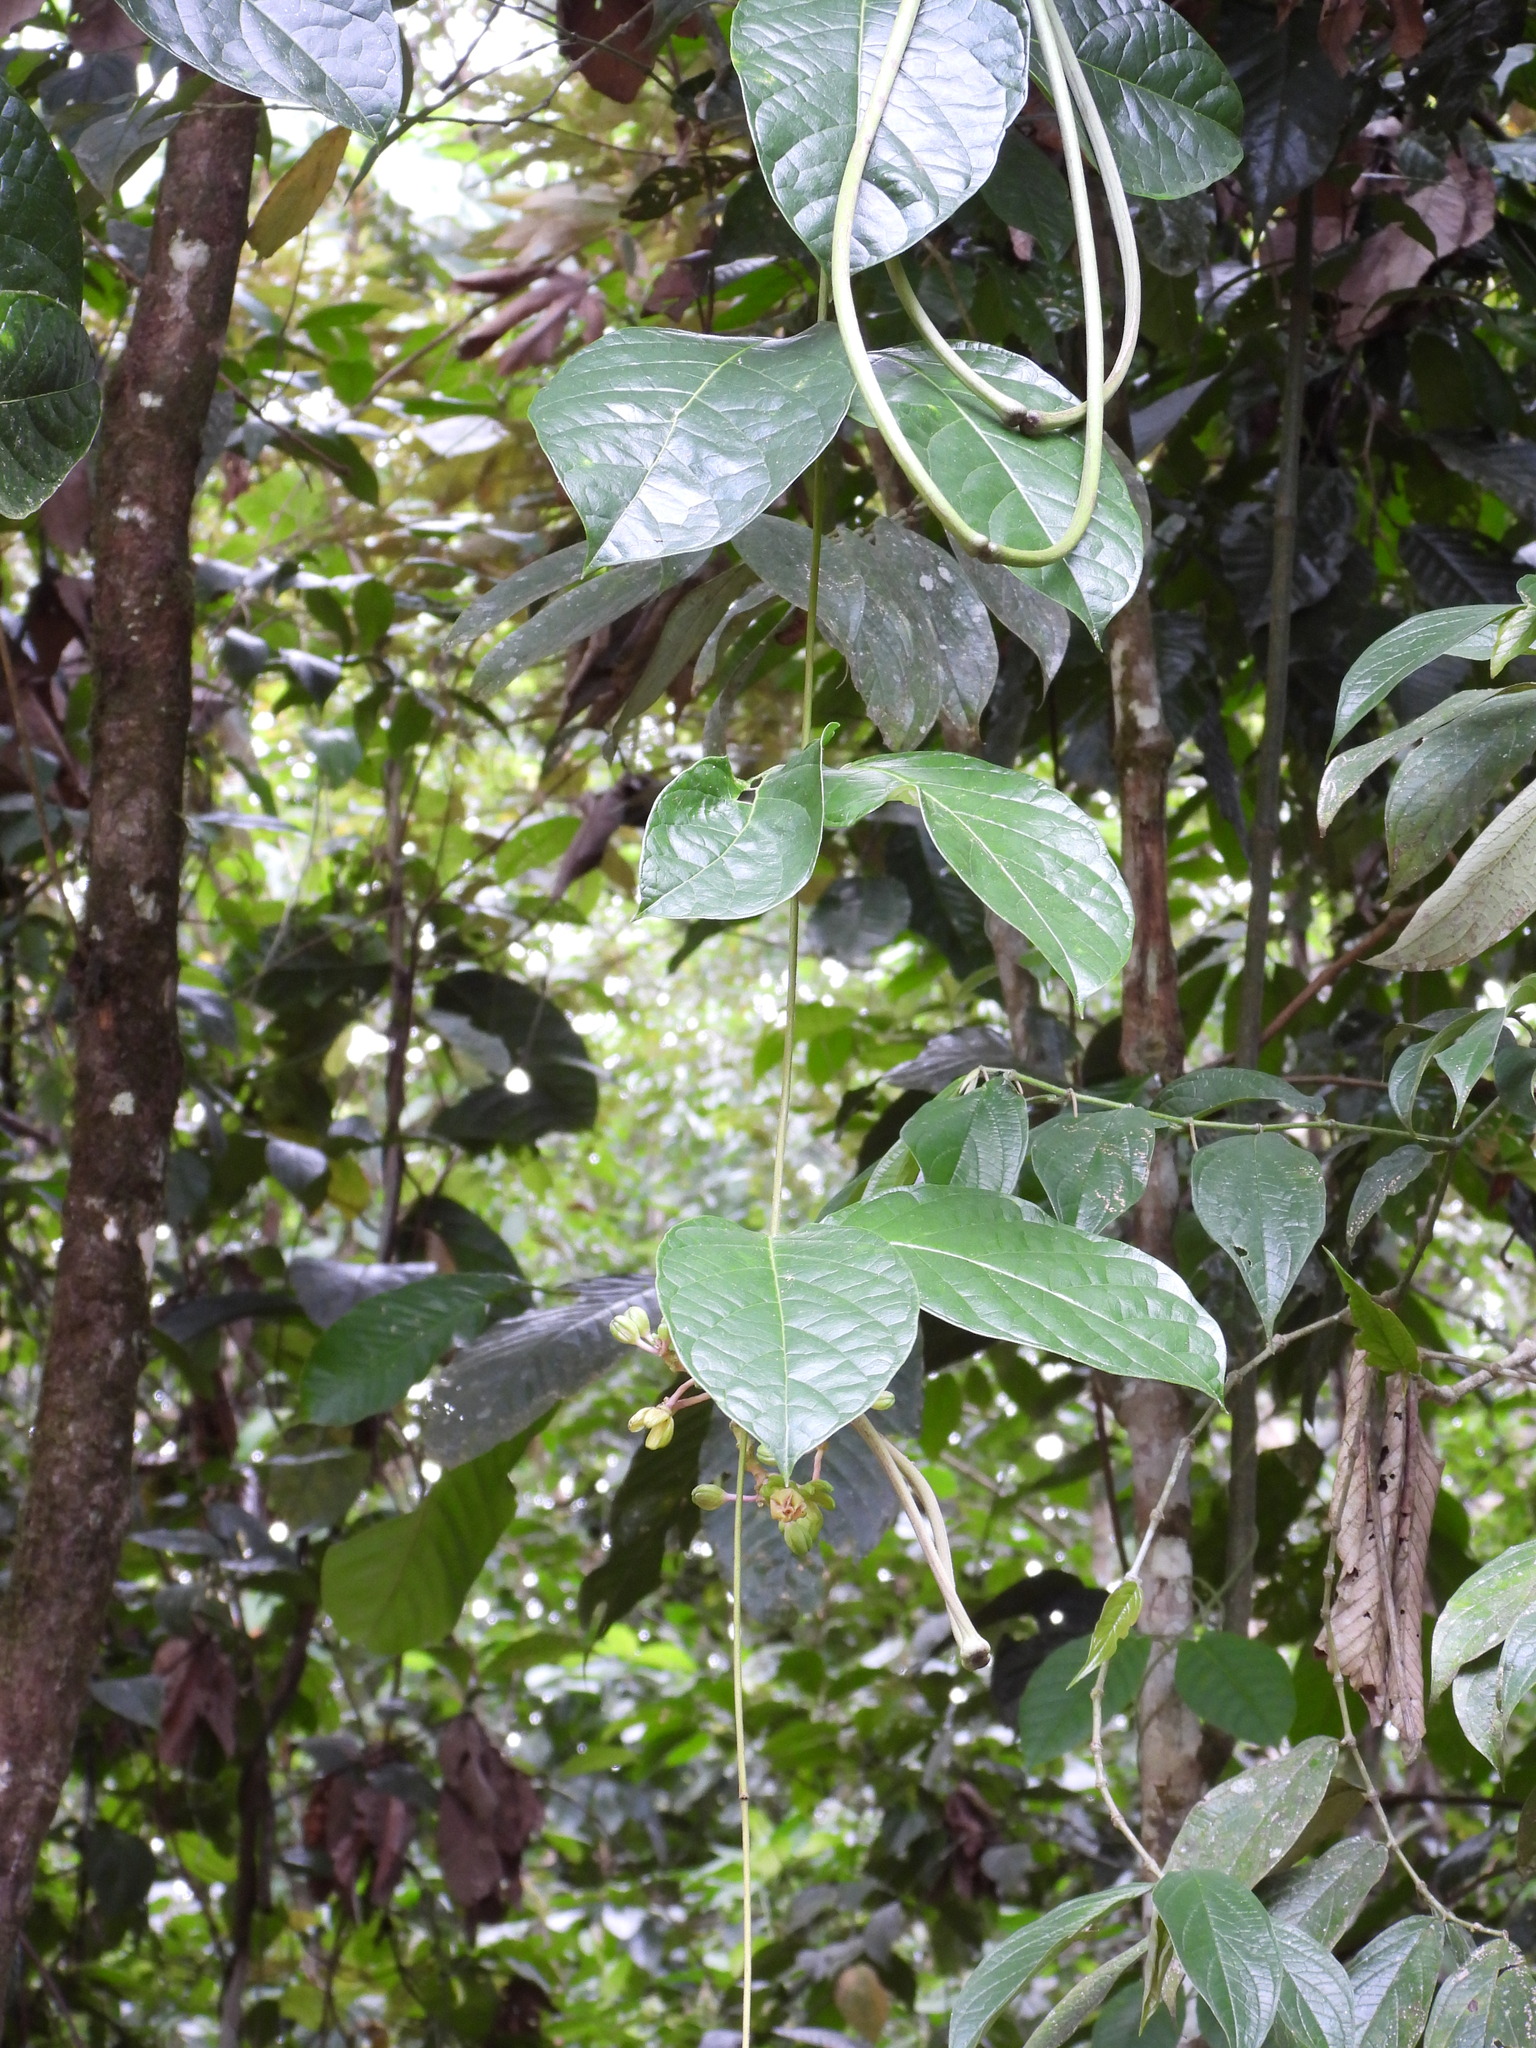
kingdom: Plantae
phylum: Tracheophyta
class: Magnoliopsida
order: Laurales
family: Siparunaceae
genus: Siparuna
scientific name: Siparuna thecaphora
